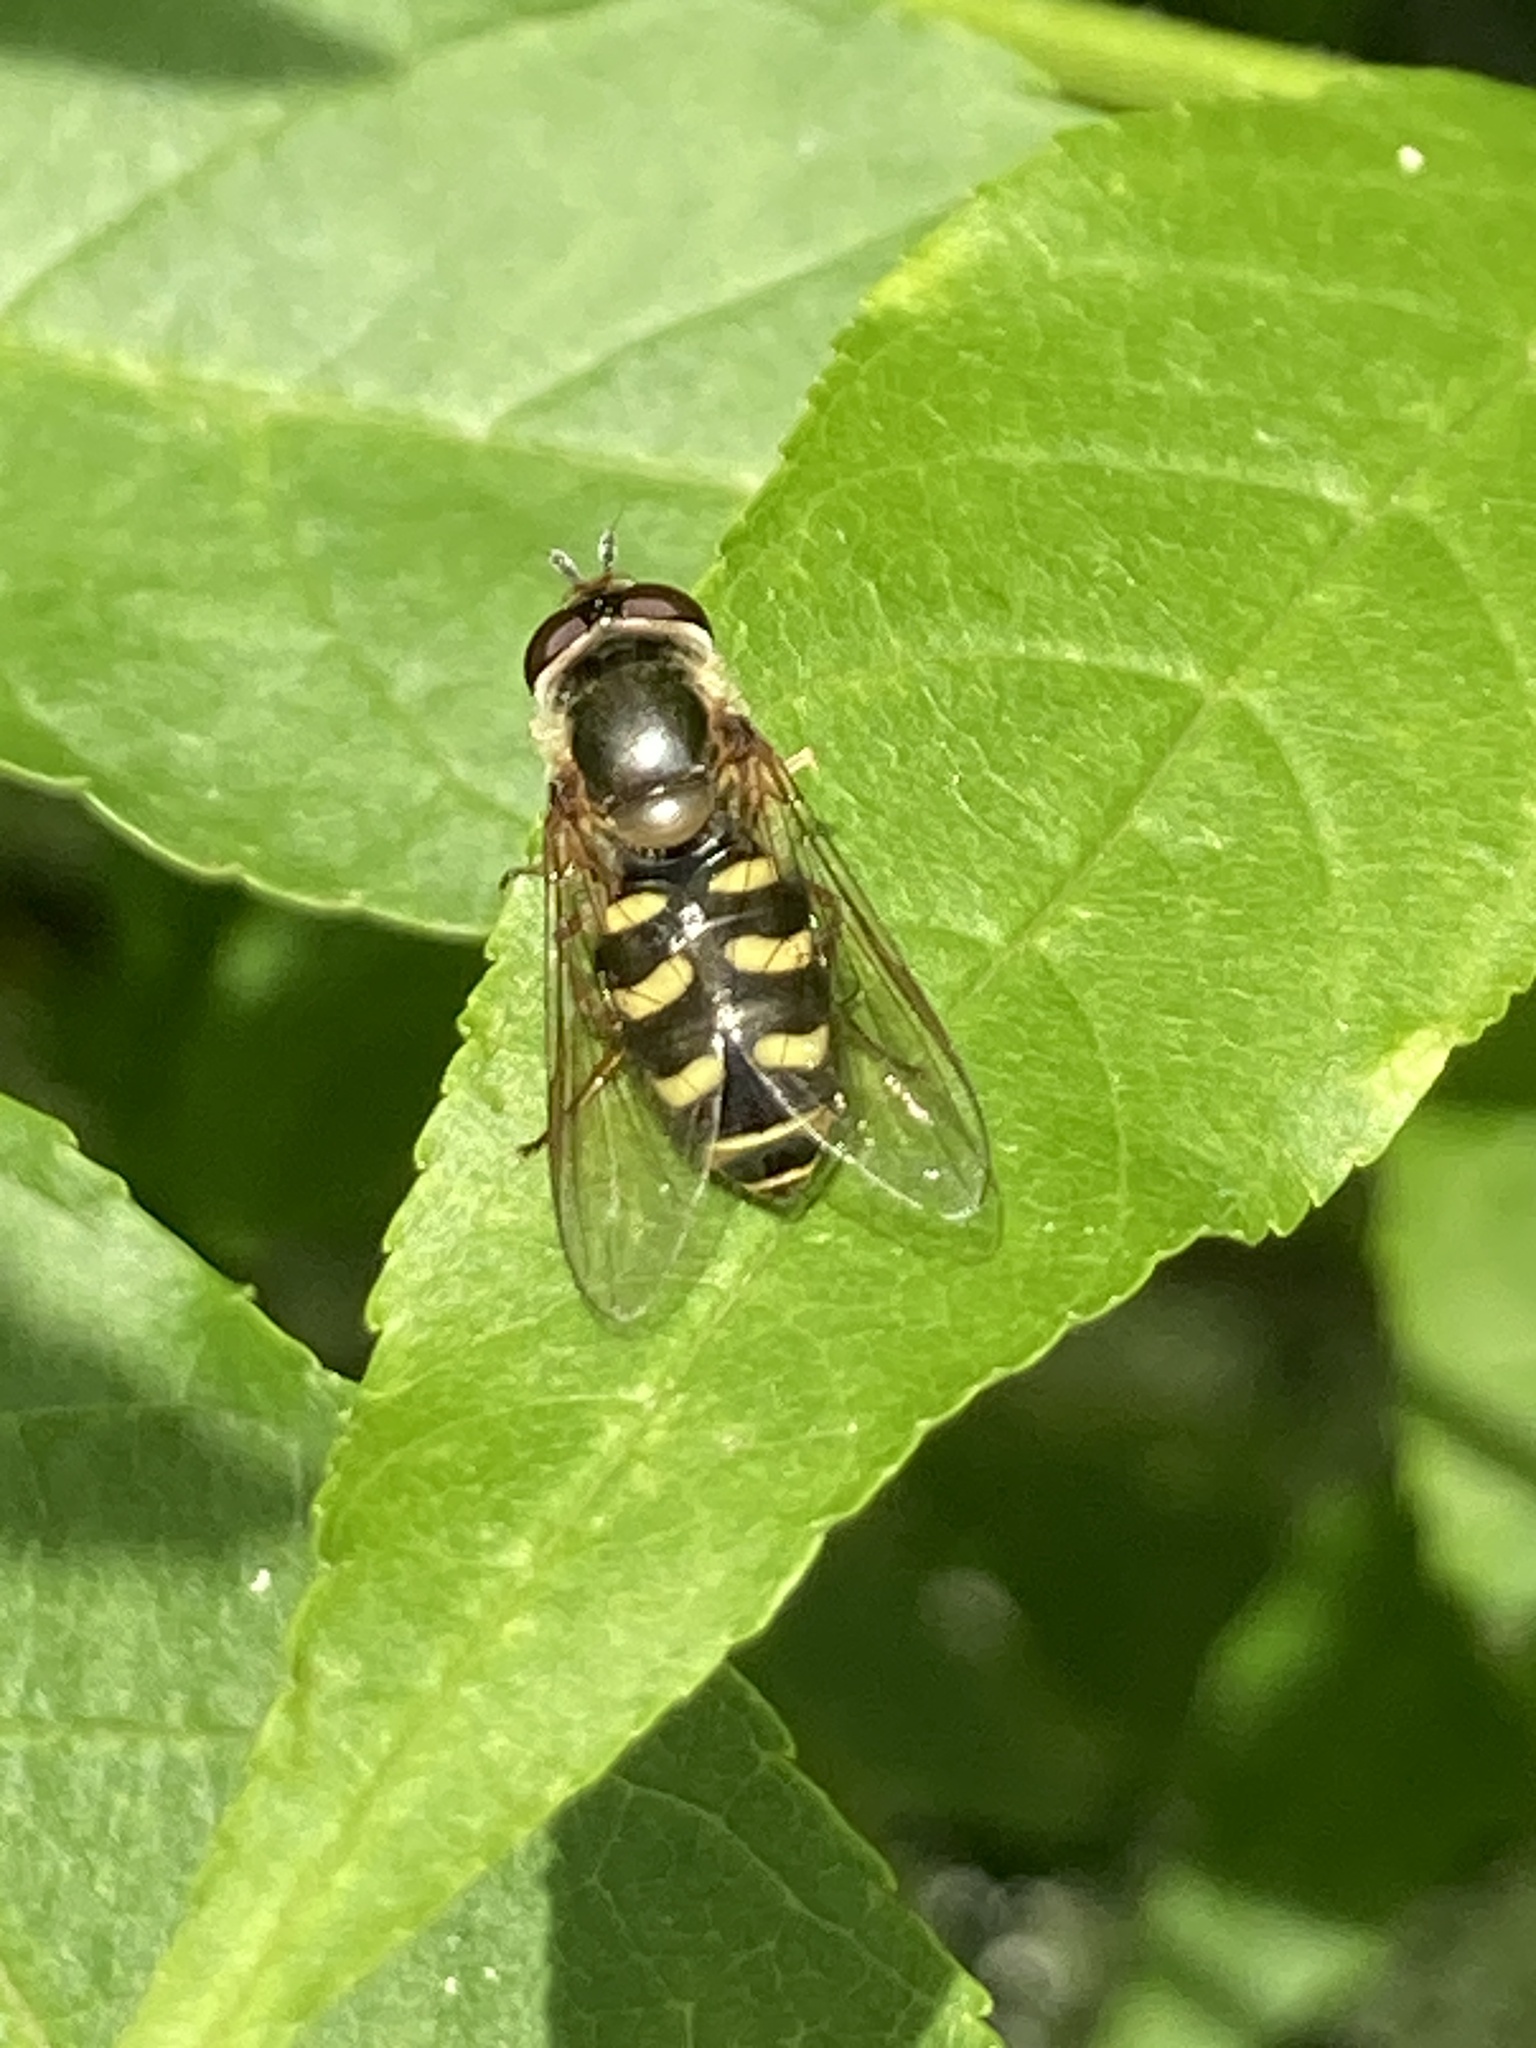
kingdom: Animalia
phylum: Arthropoda
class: Insecta
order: Diptera
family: Syrphidae
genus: Eupeodes
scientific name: Eupeodes
